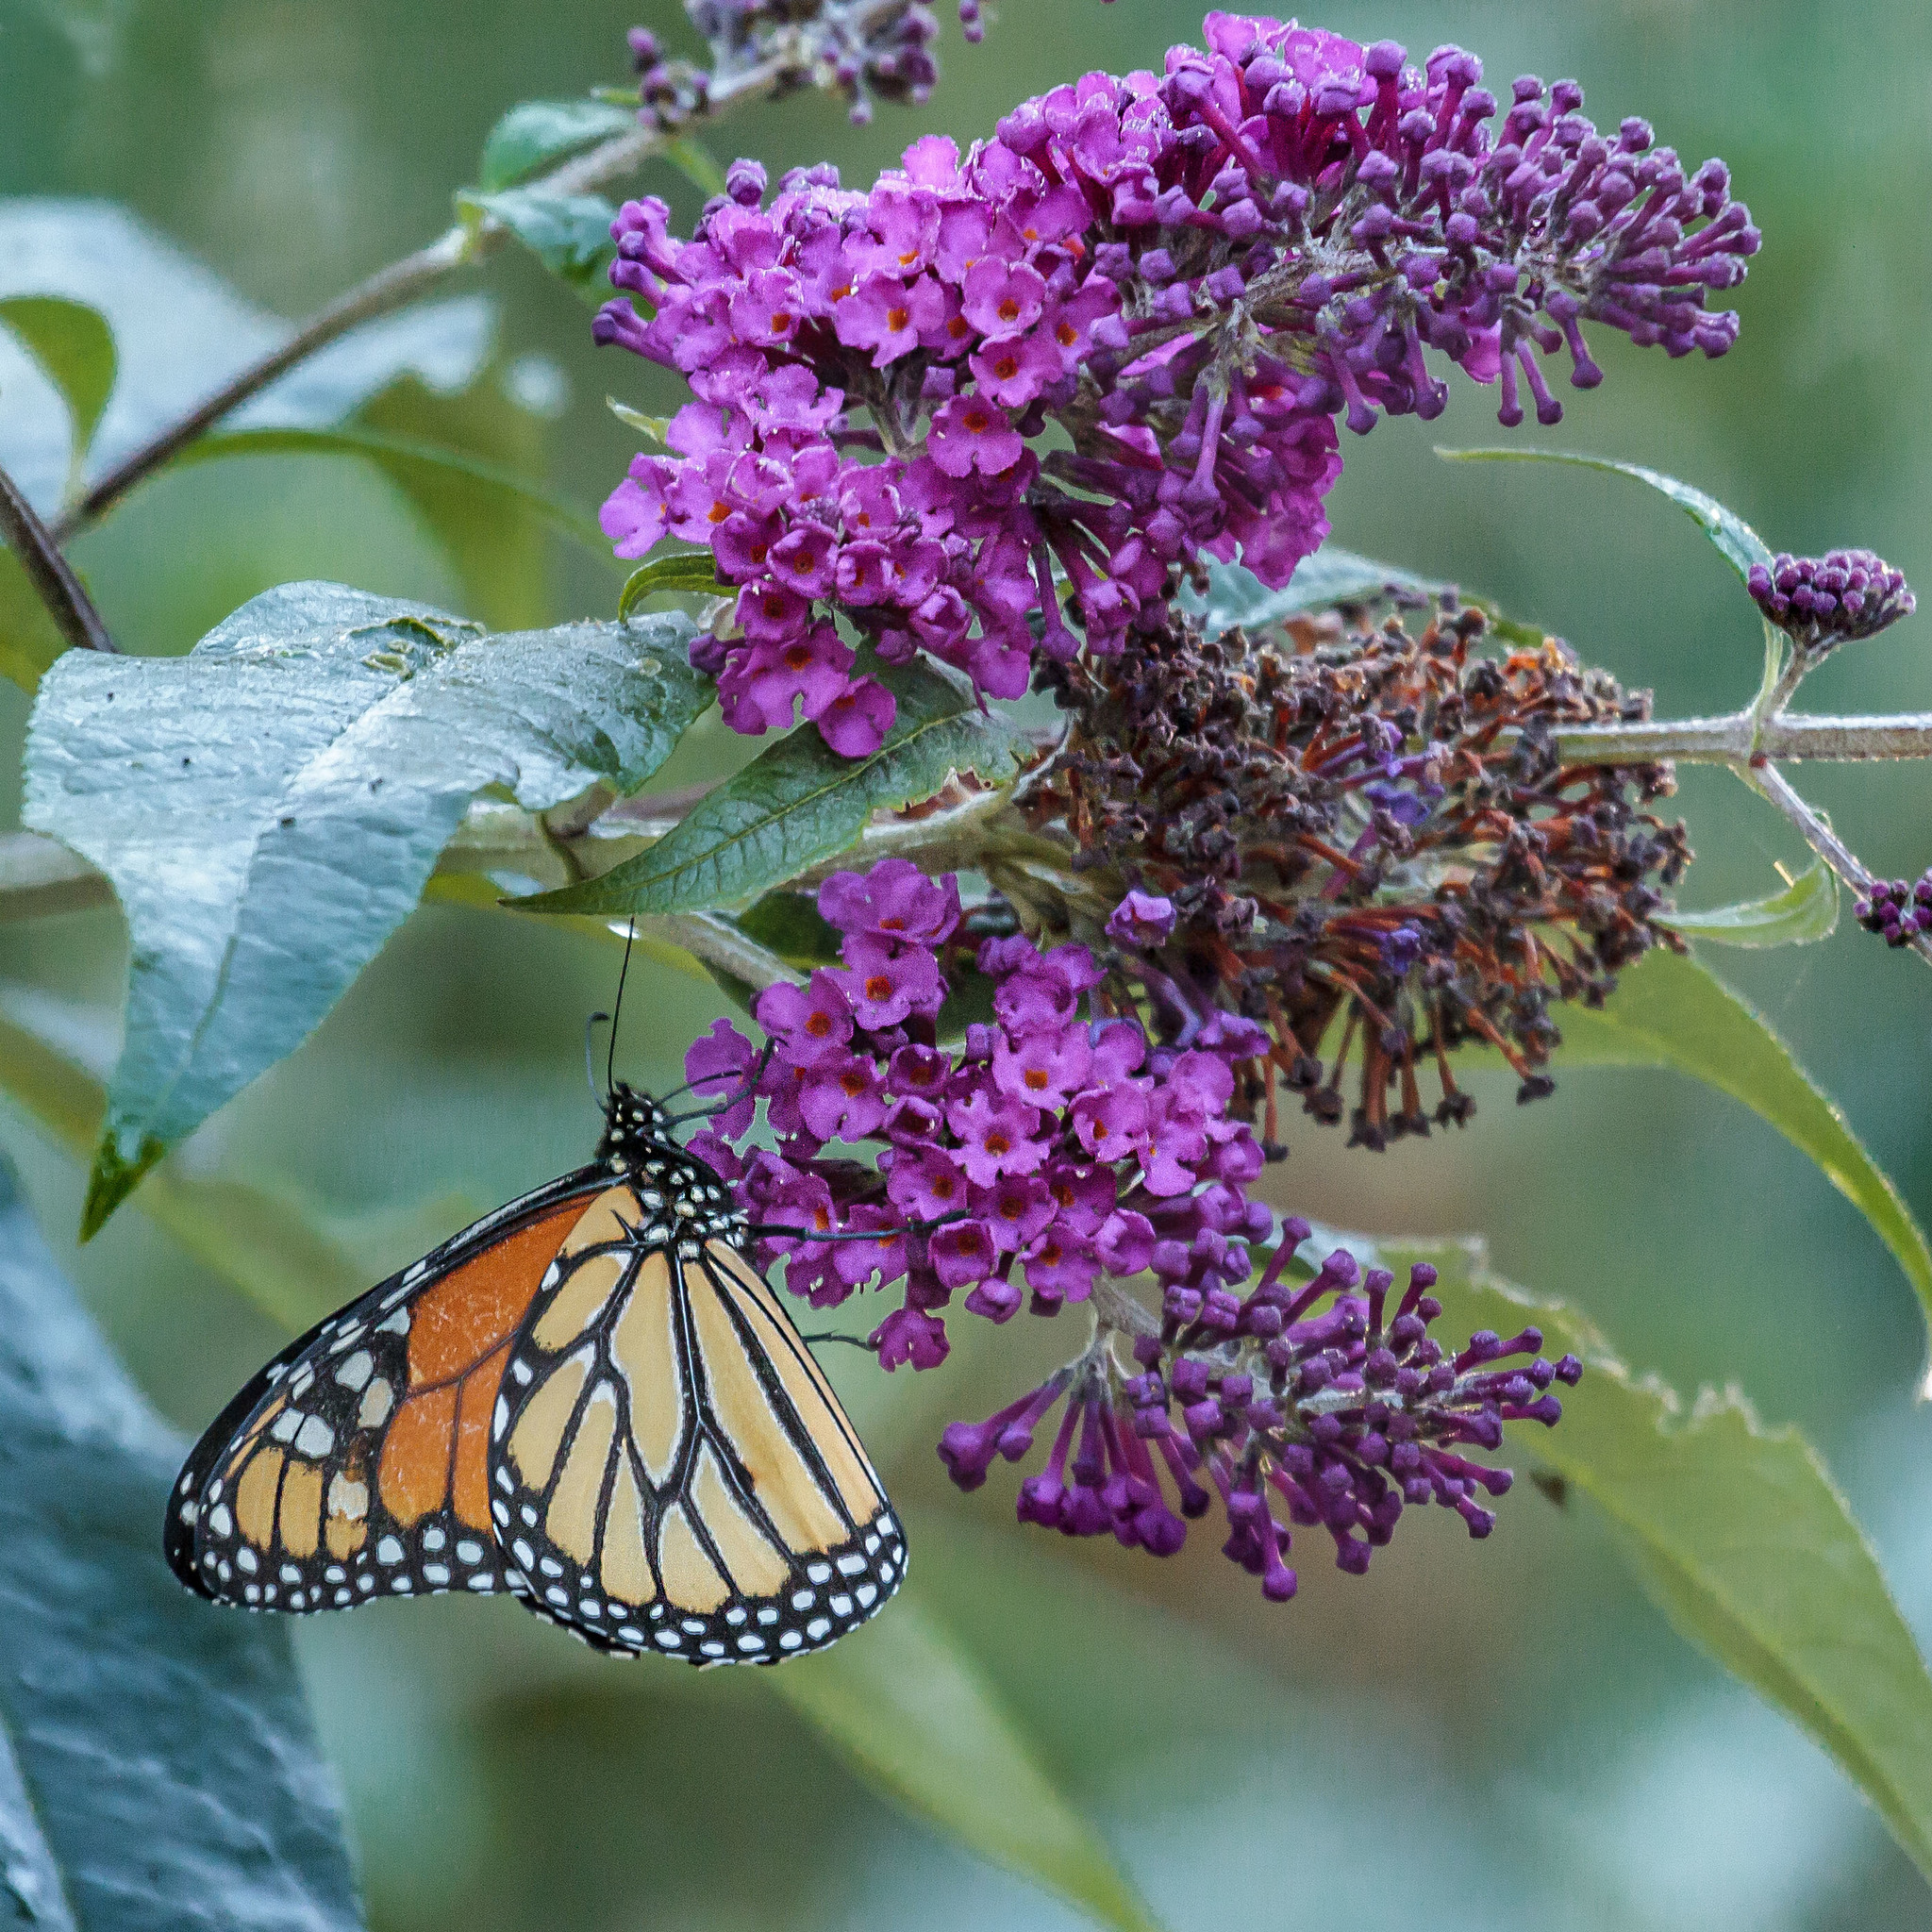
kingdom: Animalia
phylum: Arthropoda
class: Insecta
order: Lepidoptera
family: Nymphalidae
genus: Danaus
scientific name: Danaus plexippus
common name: Monarch
